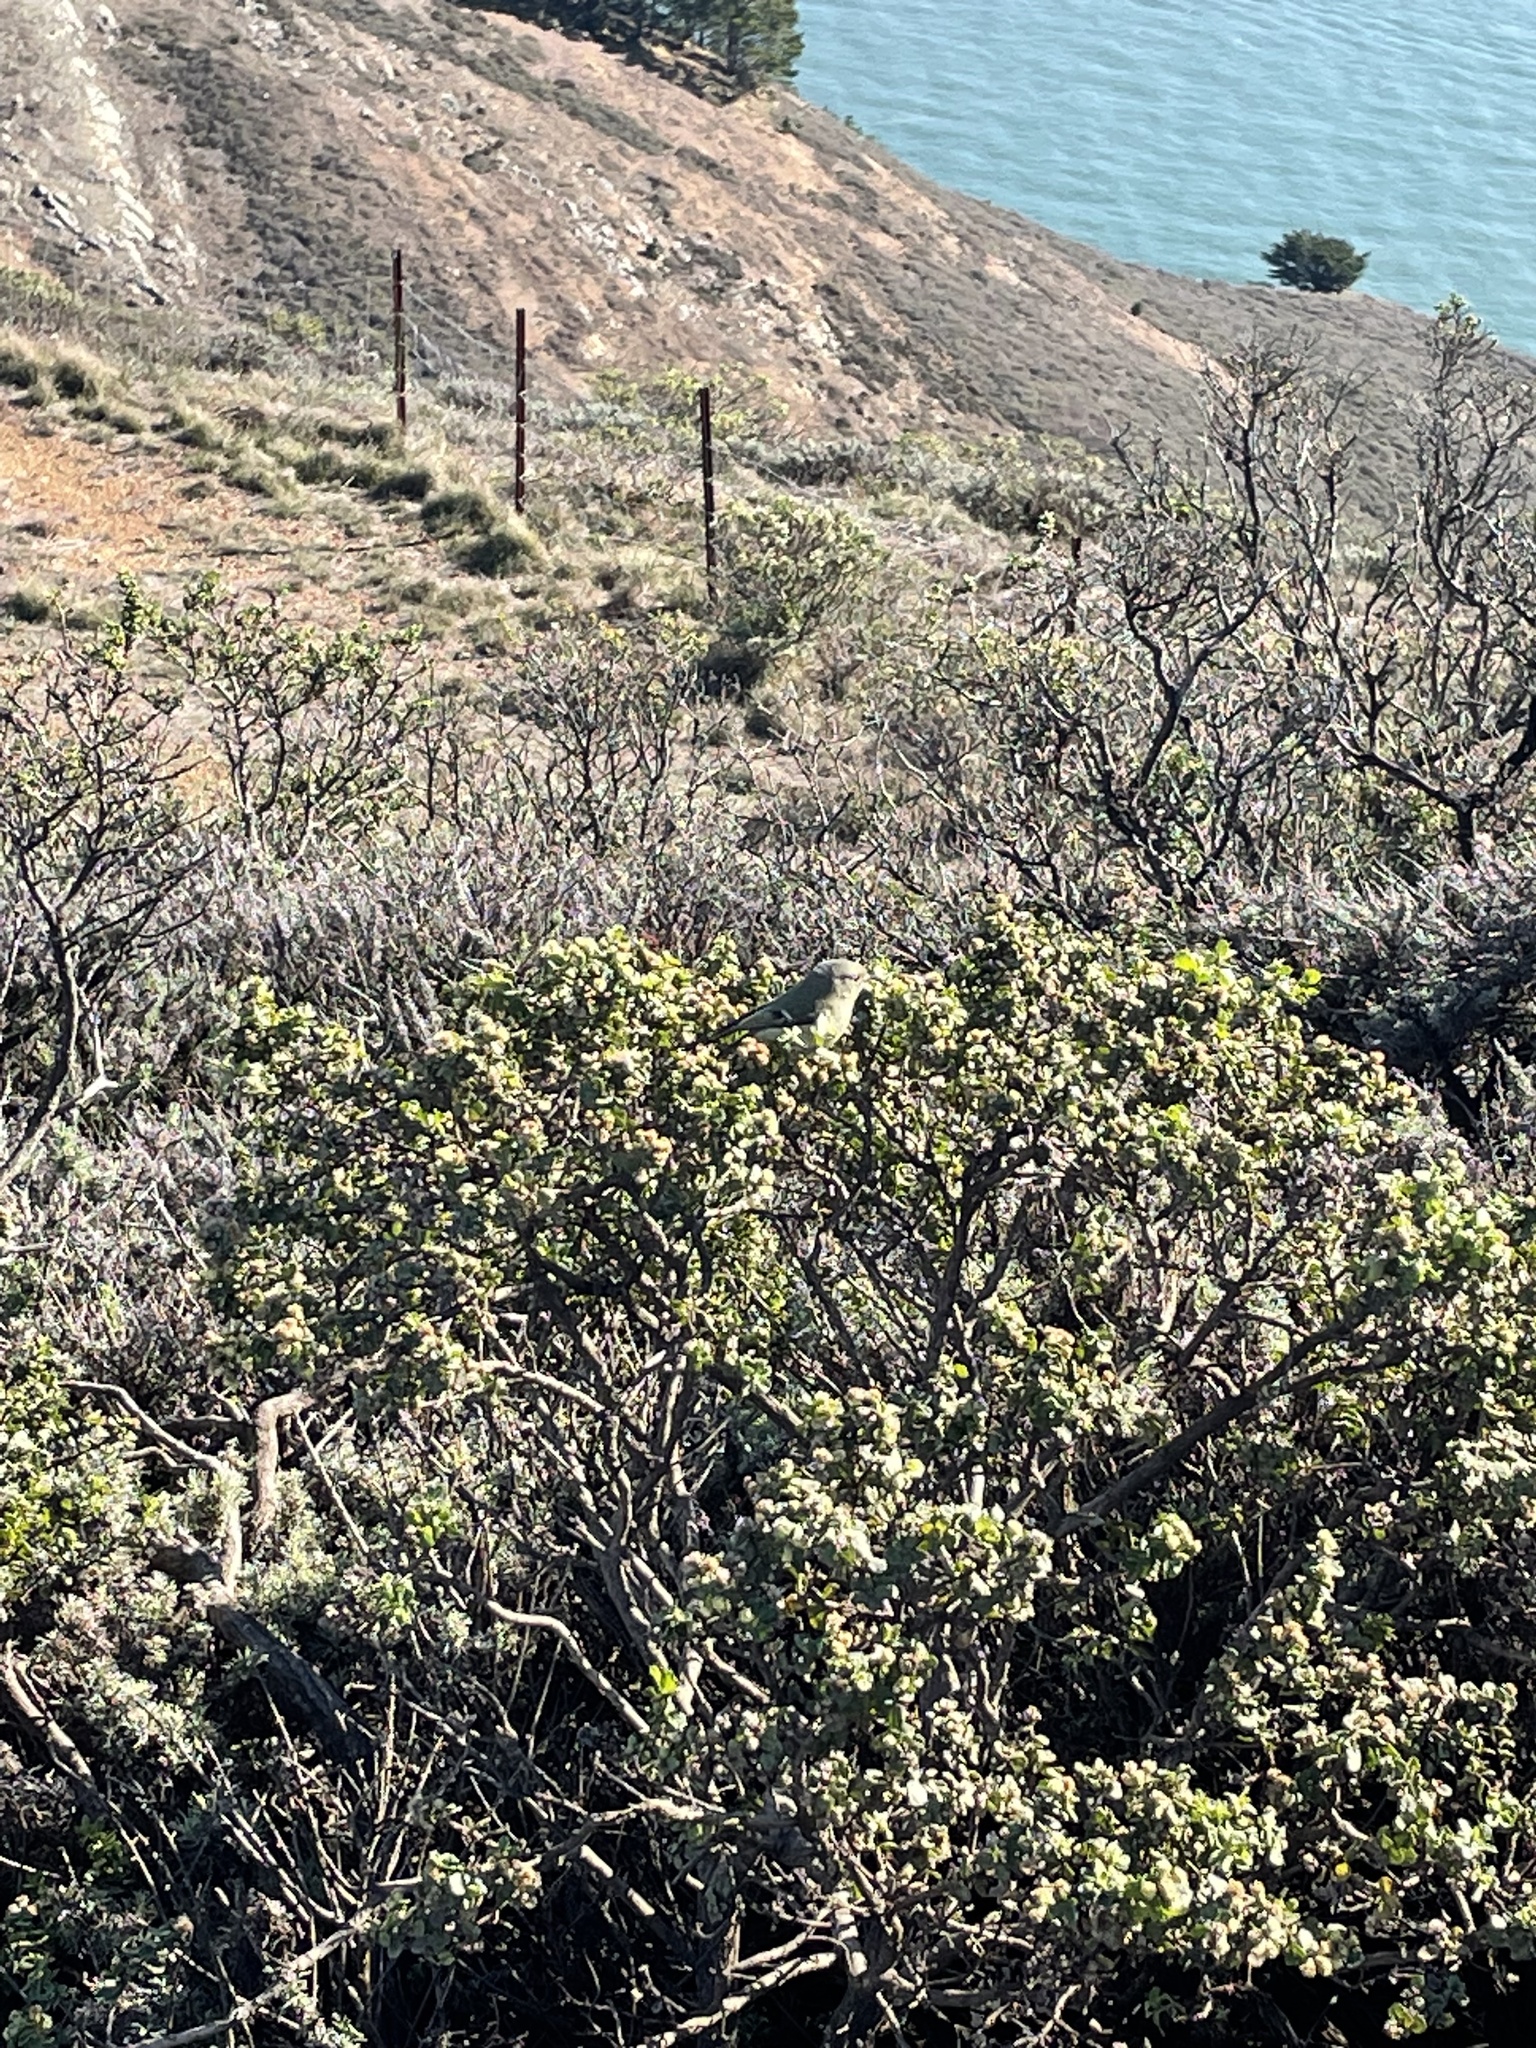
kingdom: Animalia
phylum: Chordata
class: Aves
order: Passeriformes
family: Regulidae
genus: Regulus
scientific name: Regulus calendula
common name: Ruby-crowned kinglet
